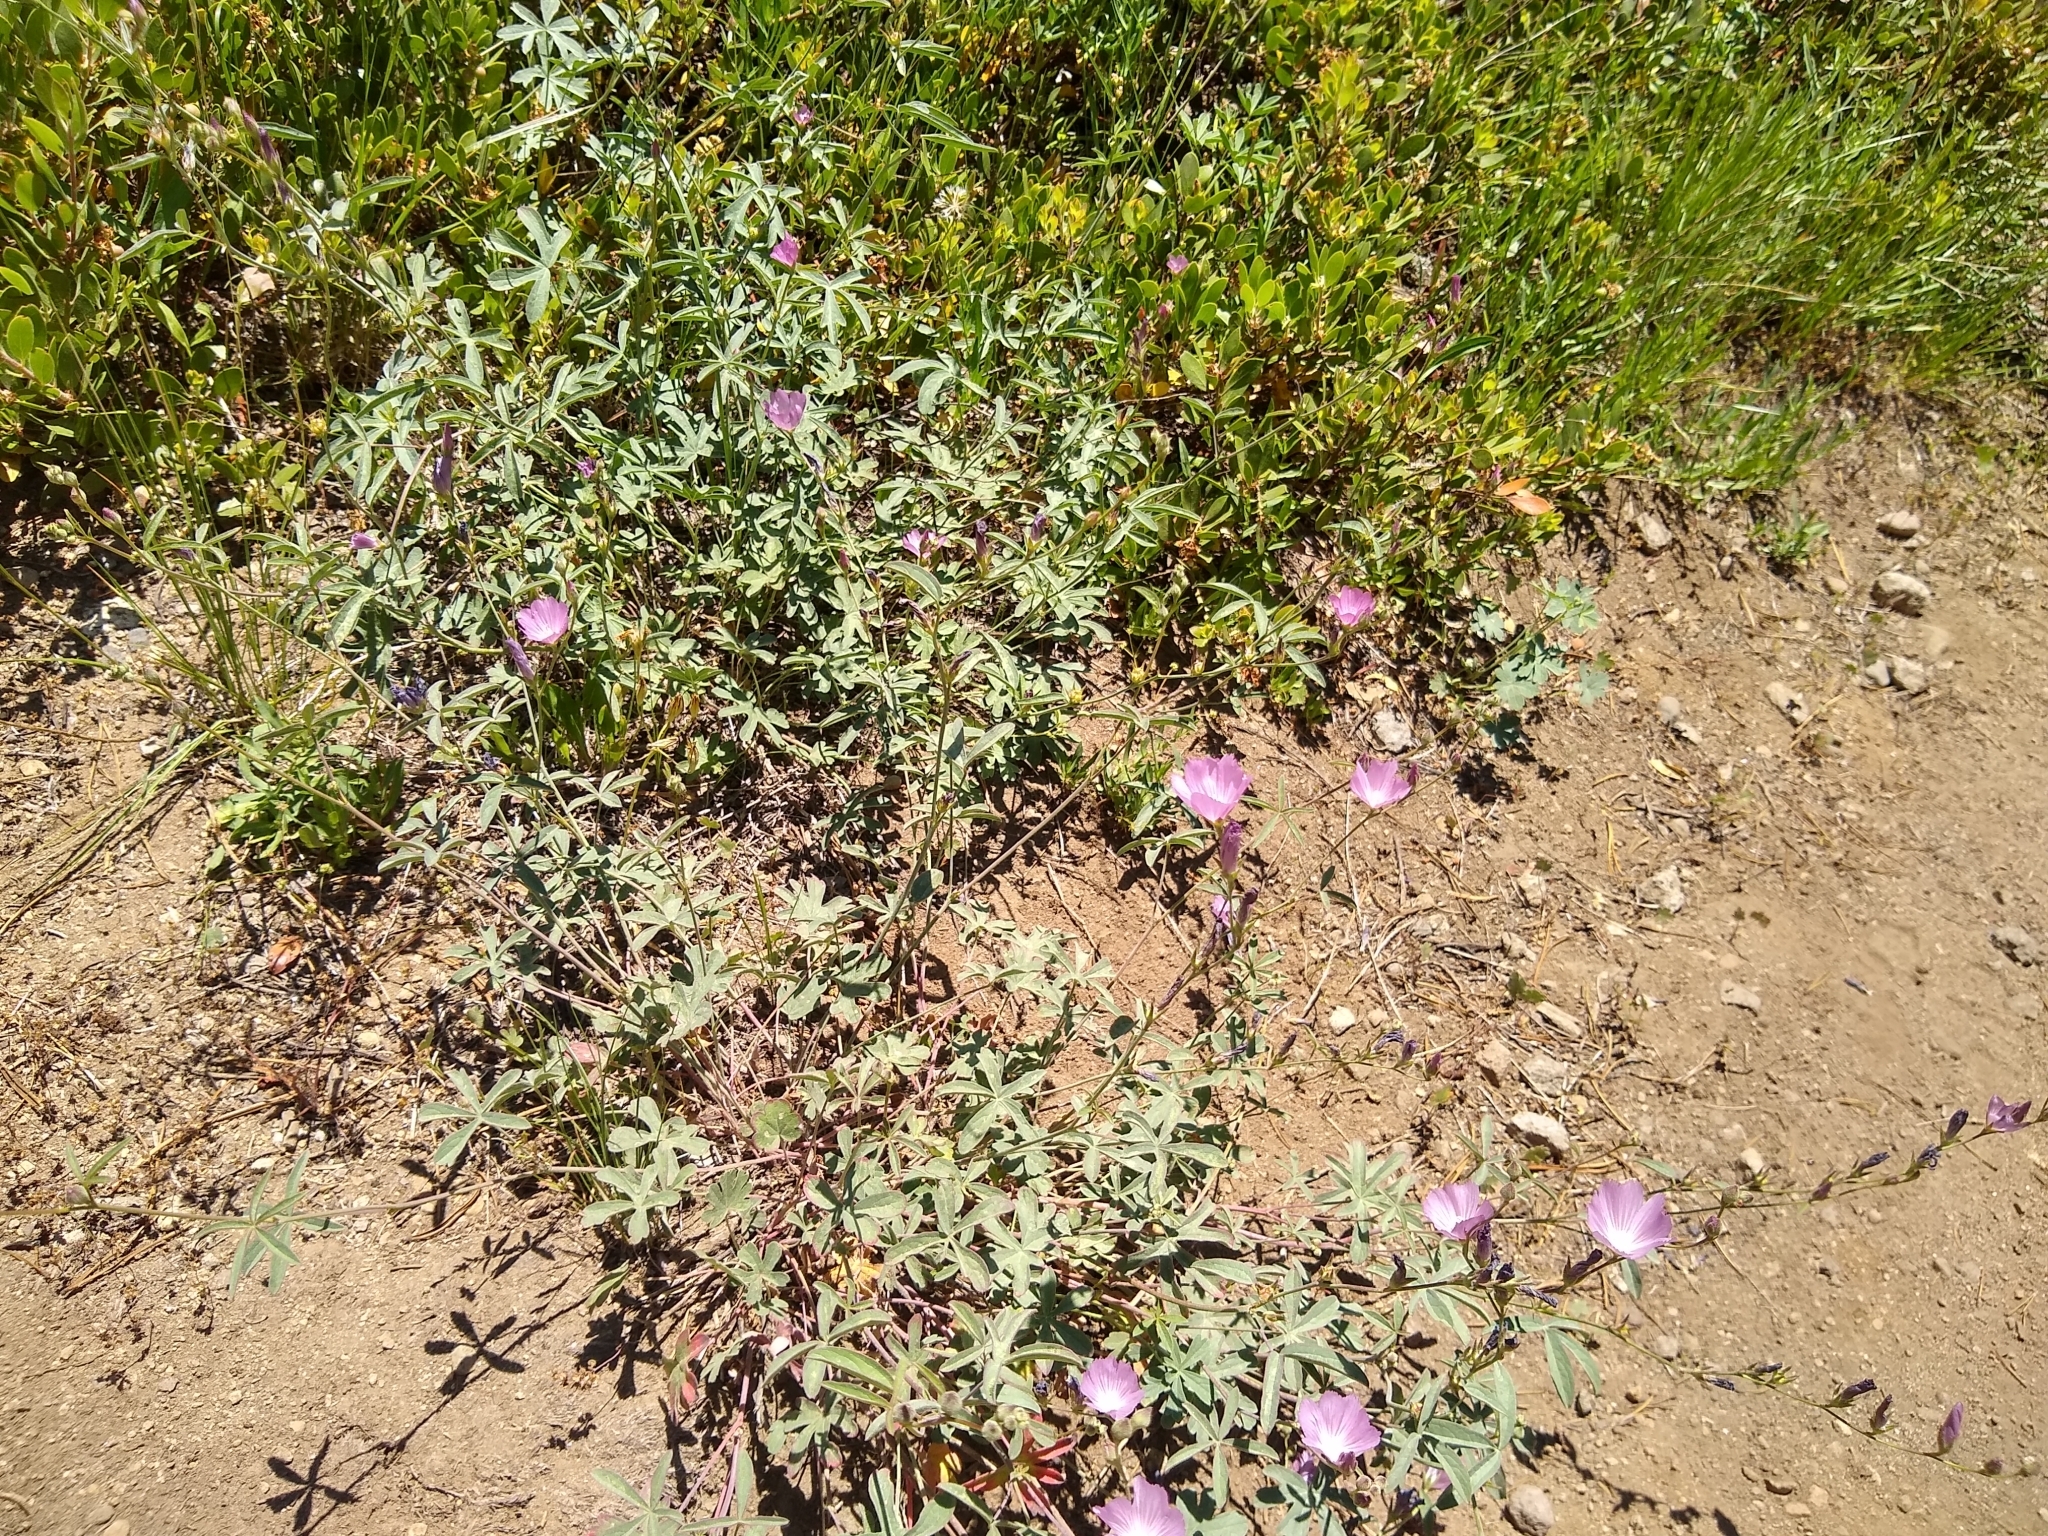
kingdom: Plantae
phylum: Tracheophyta
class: Magnoliopsida
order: Malvales
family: Malvaceae
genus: Sidalcea
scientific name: Sidalcea glaucescens
